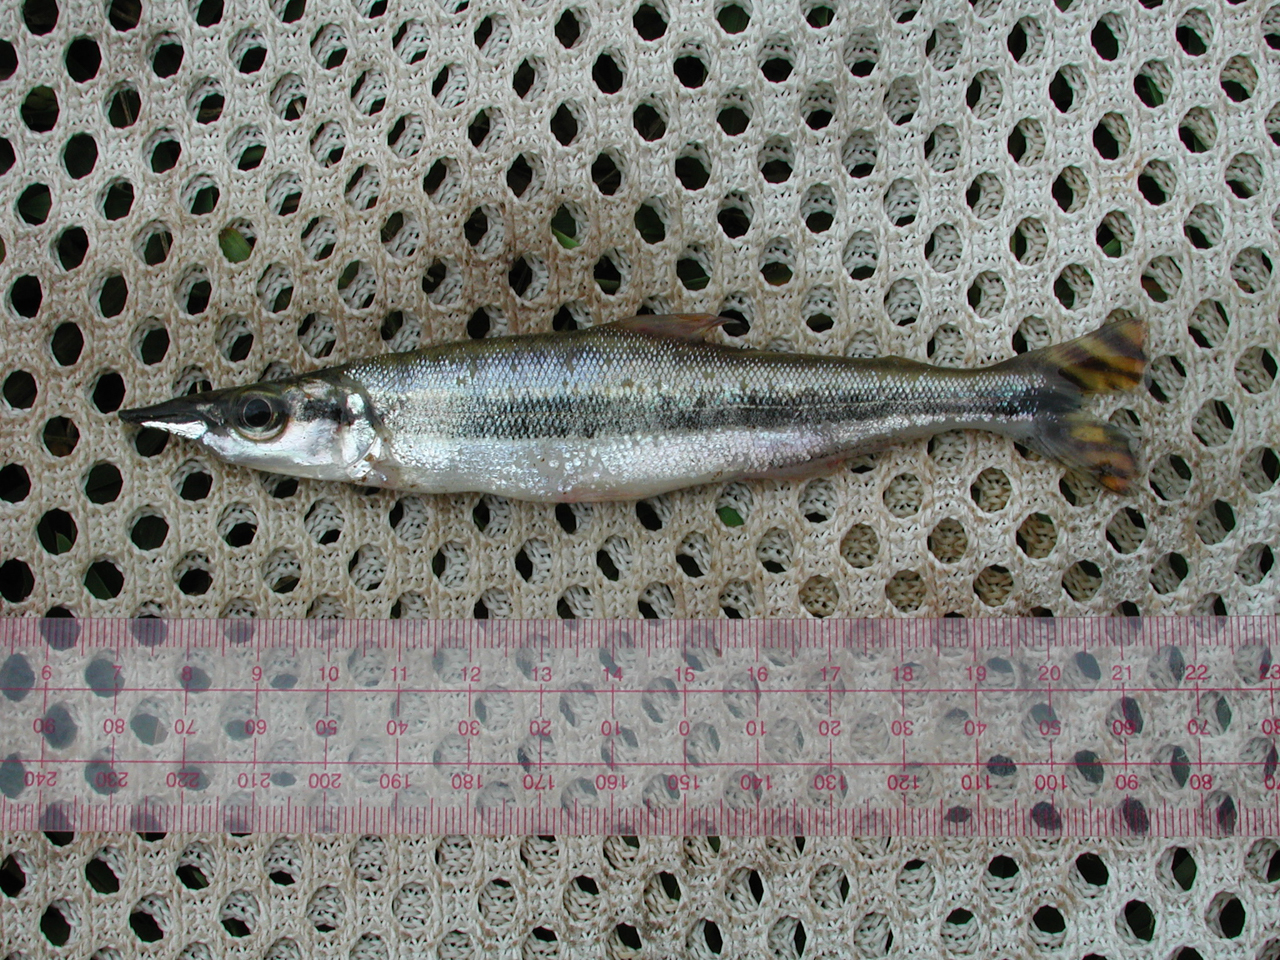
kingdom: Animalia
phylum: Chordata
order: Characiformes
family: Distichodontidae
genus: Ichthyborus
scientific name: Ichthyborus ornatus
